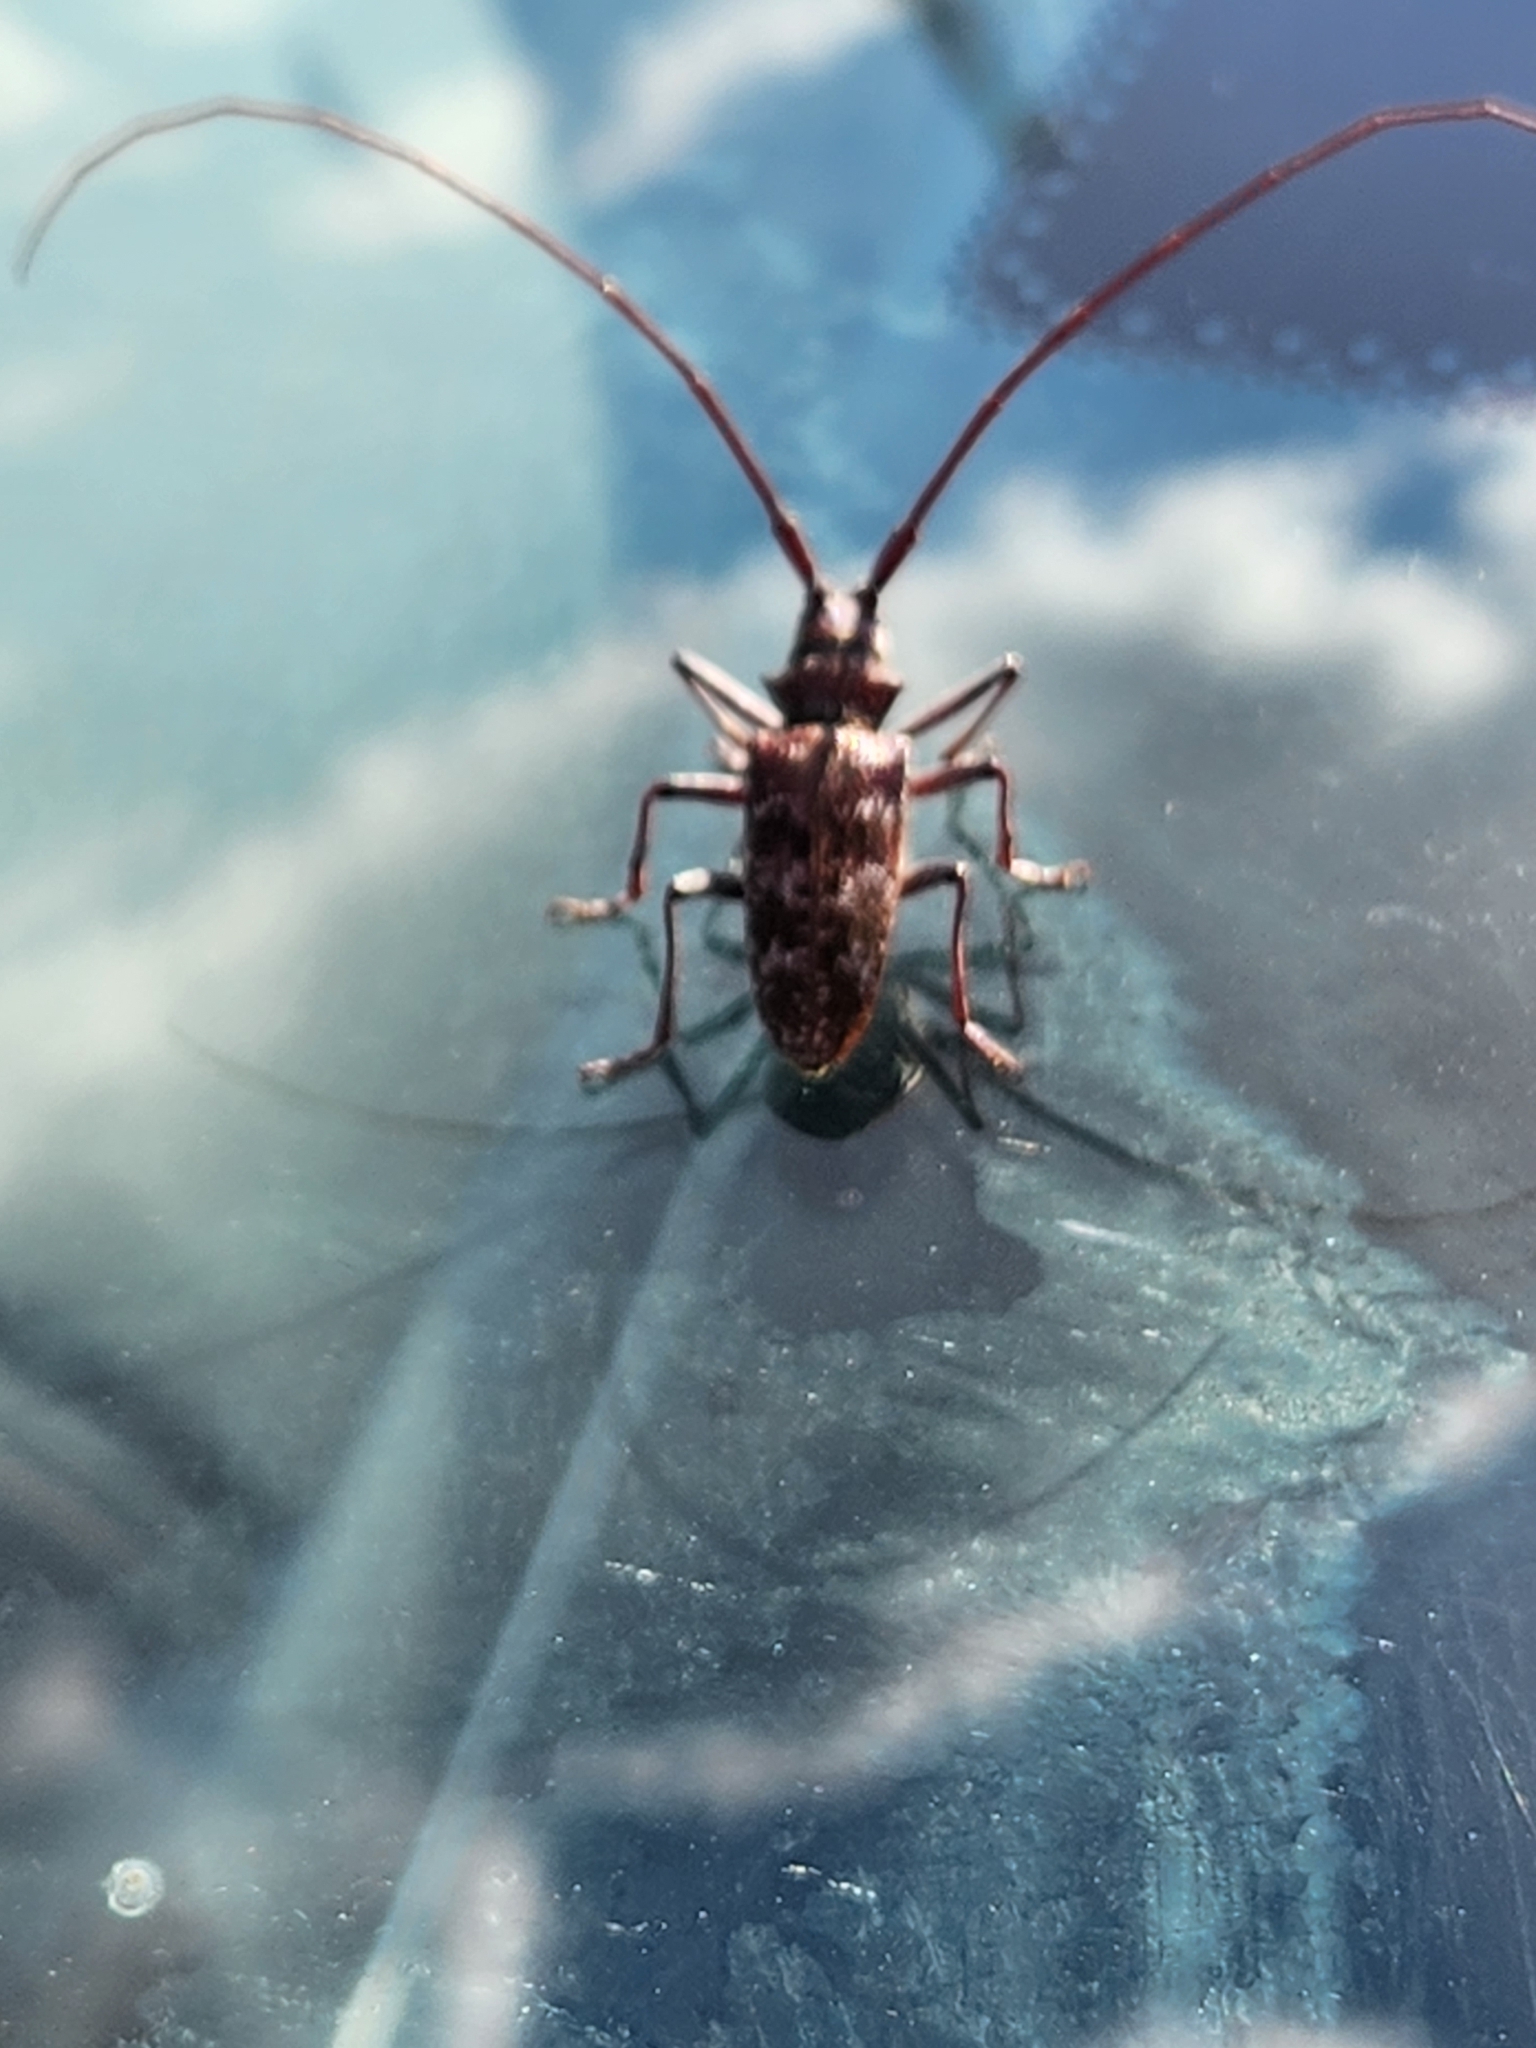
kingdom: Animalia
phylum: Arthropoda
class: Insecta
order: Coleoptera
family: Cerambycidae
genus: Monochamus
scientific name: Monochamus obtusus
